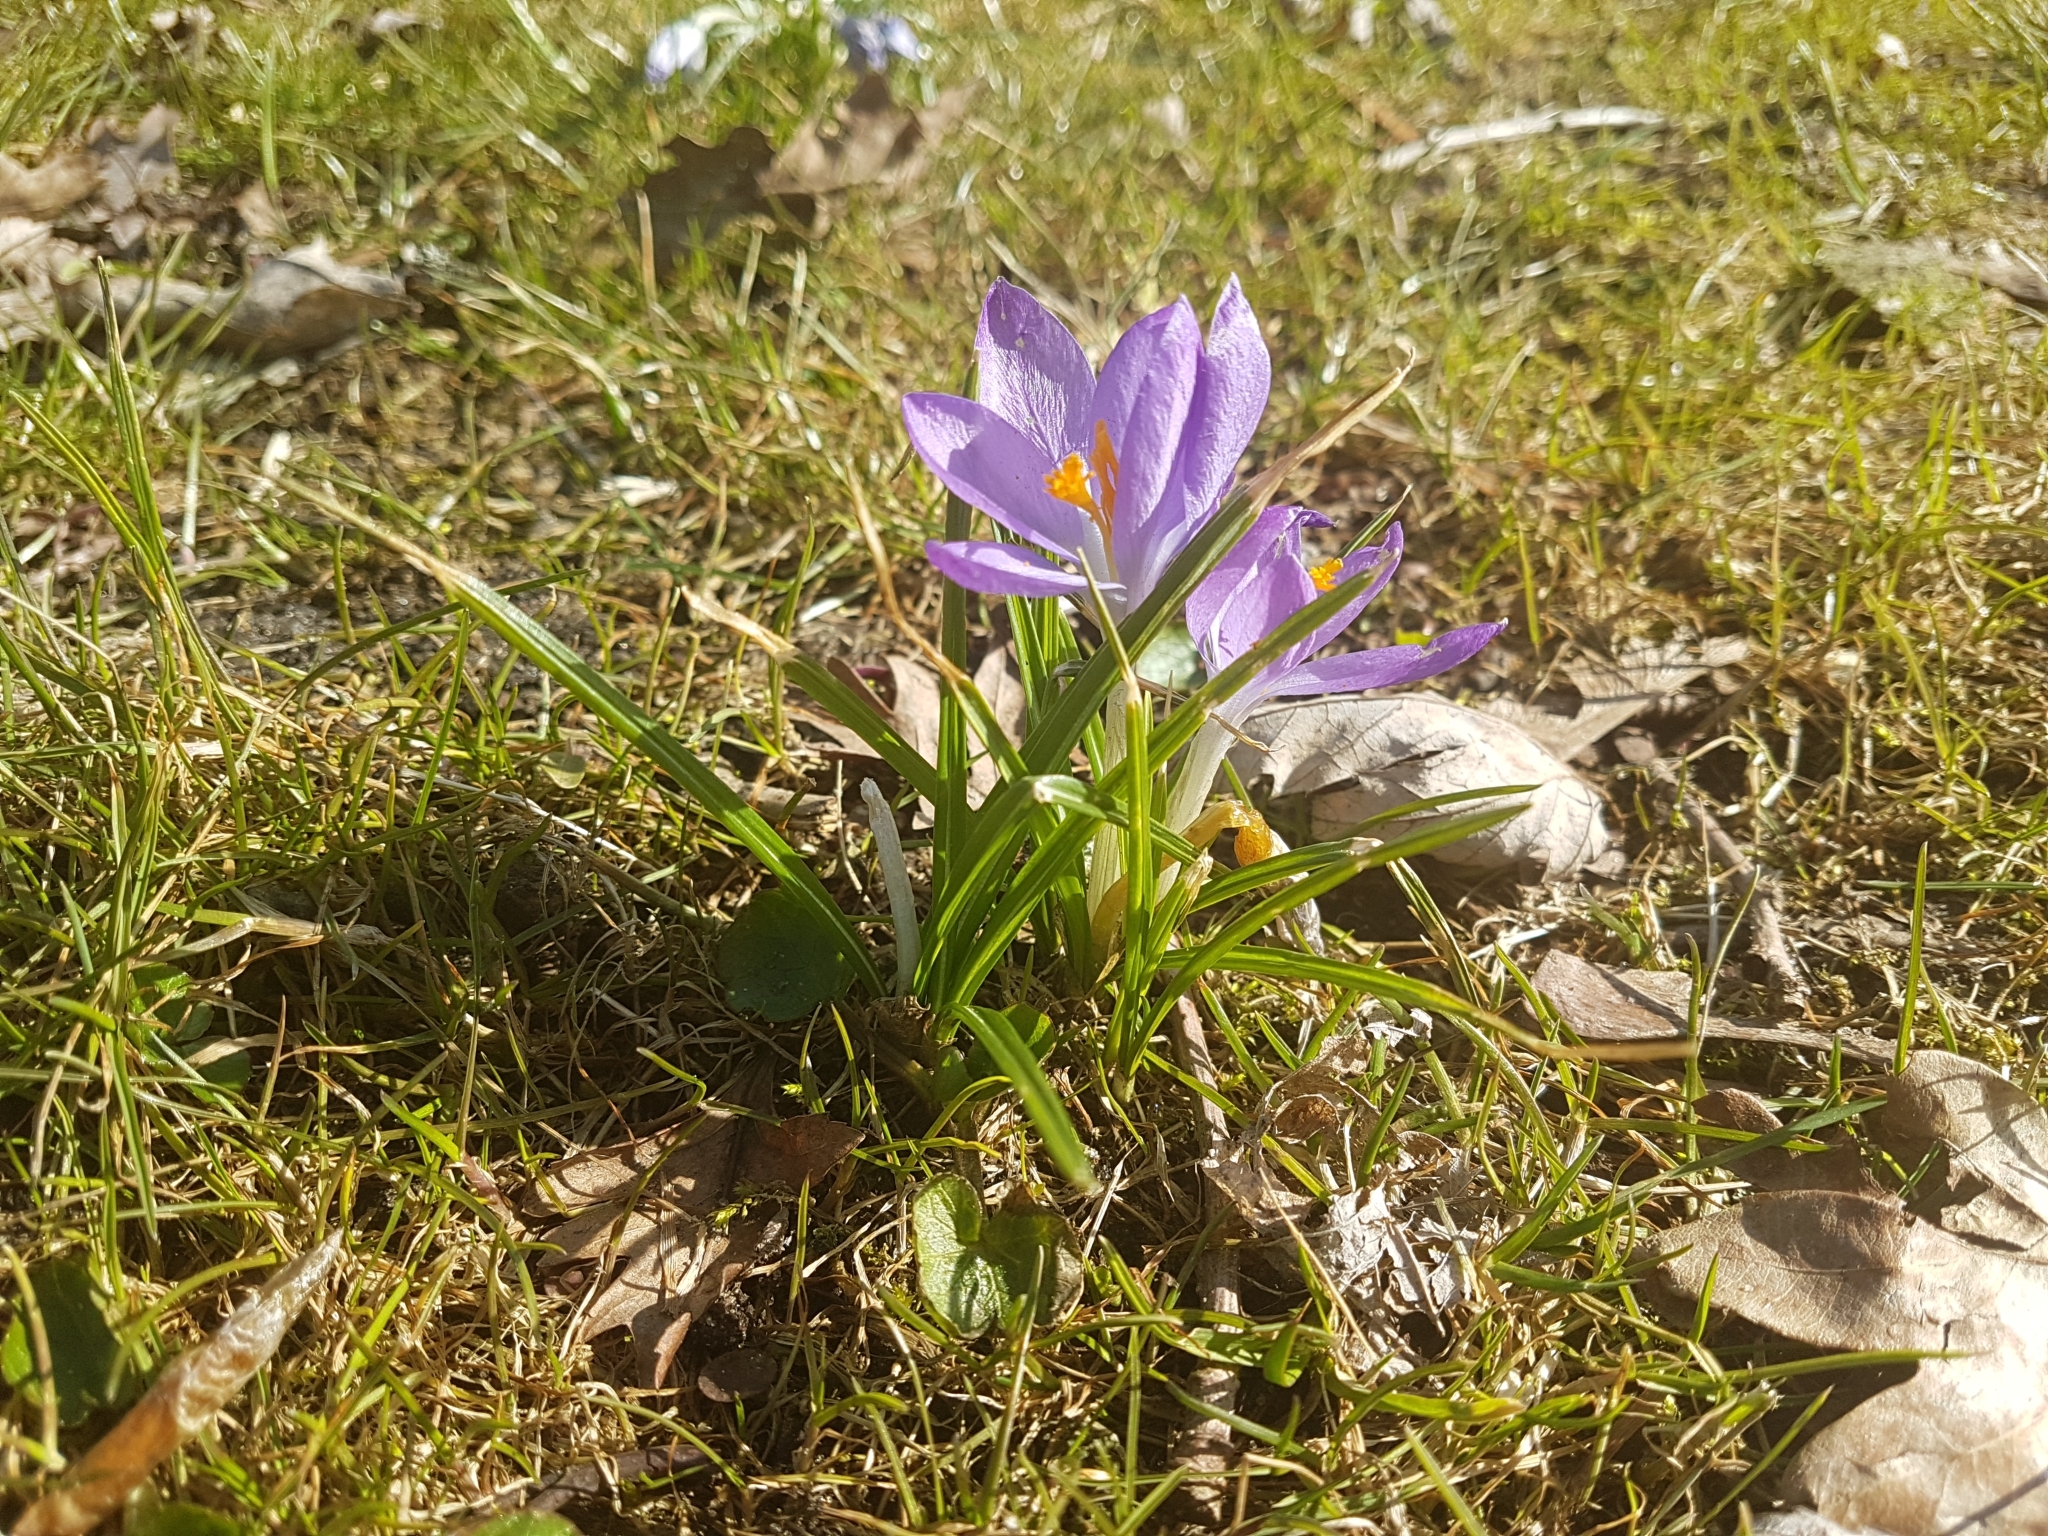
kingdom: Plantae
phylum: Tracheophyta
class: Liliopsida
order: Asparagales
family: Iridaceae
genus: Crocus
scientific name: Crocus tommasinianus
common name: Early crocus
